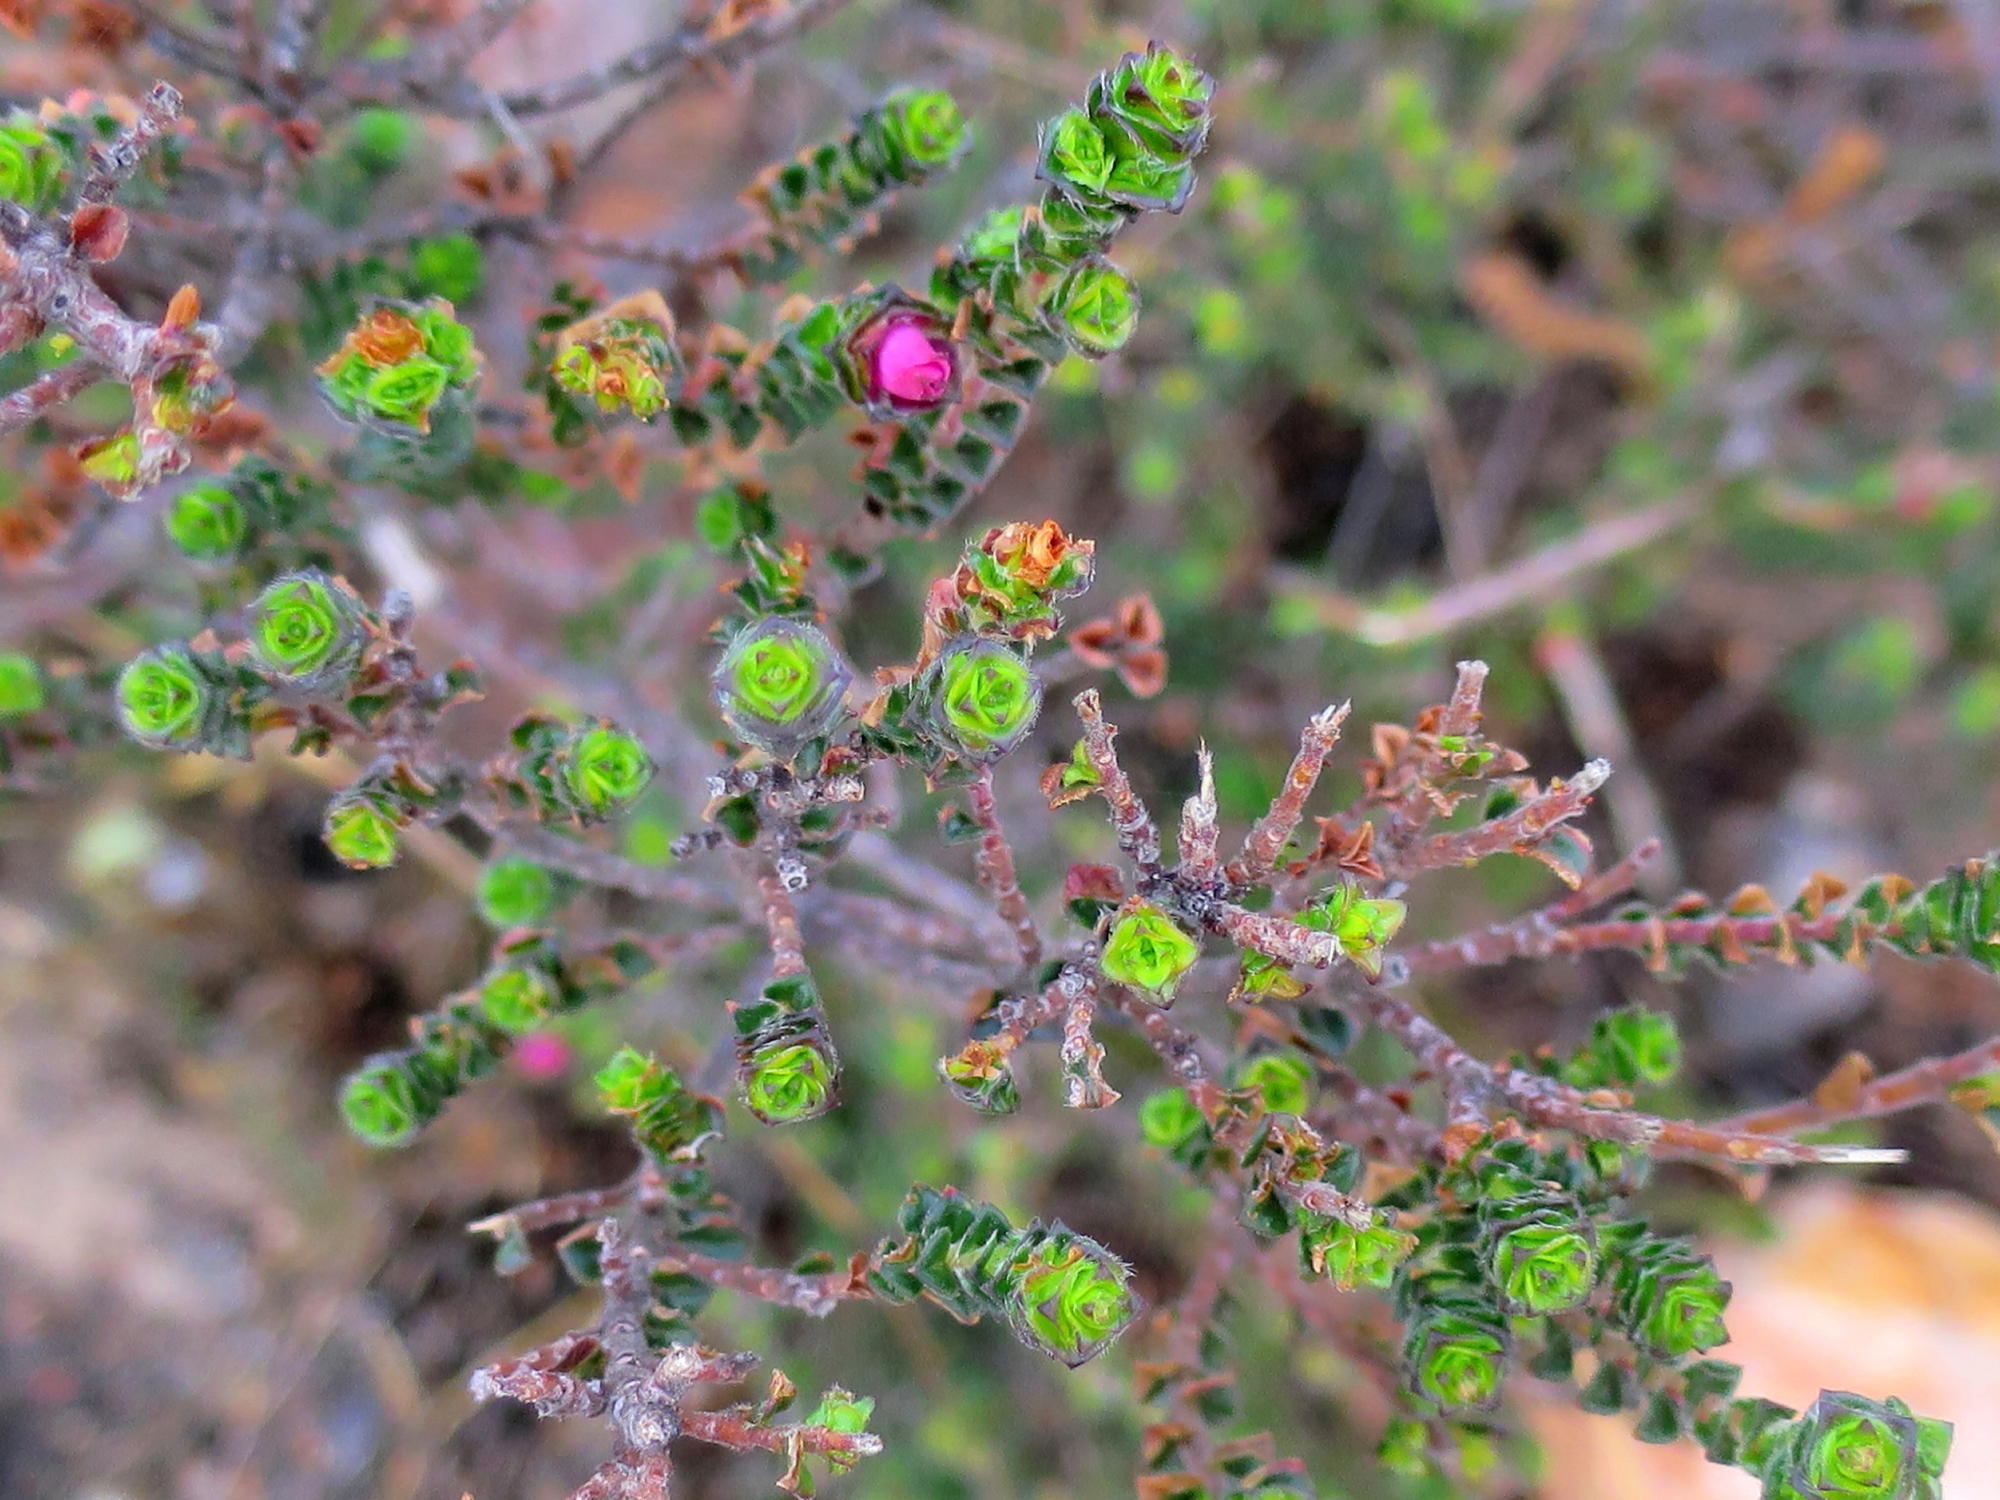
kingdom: Plantae
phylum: Tracheophyta
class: Magnoliopsida
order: Sapindales
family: Rutaceae
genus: Acmadenia
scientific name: Acmadenia tetragona
